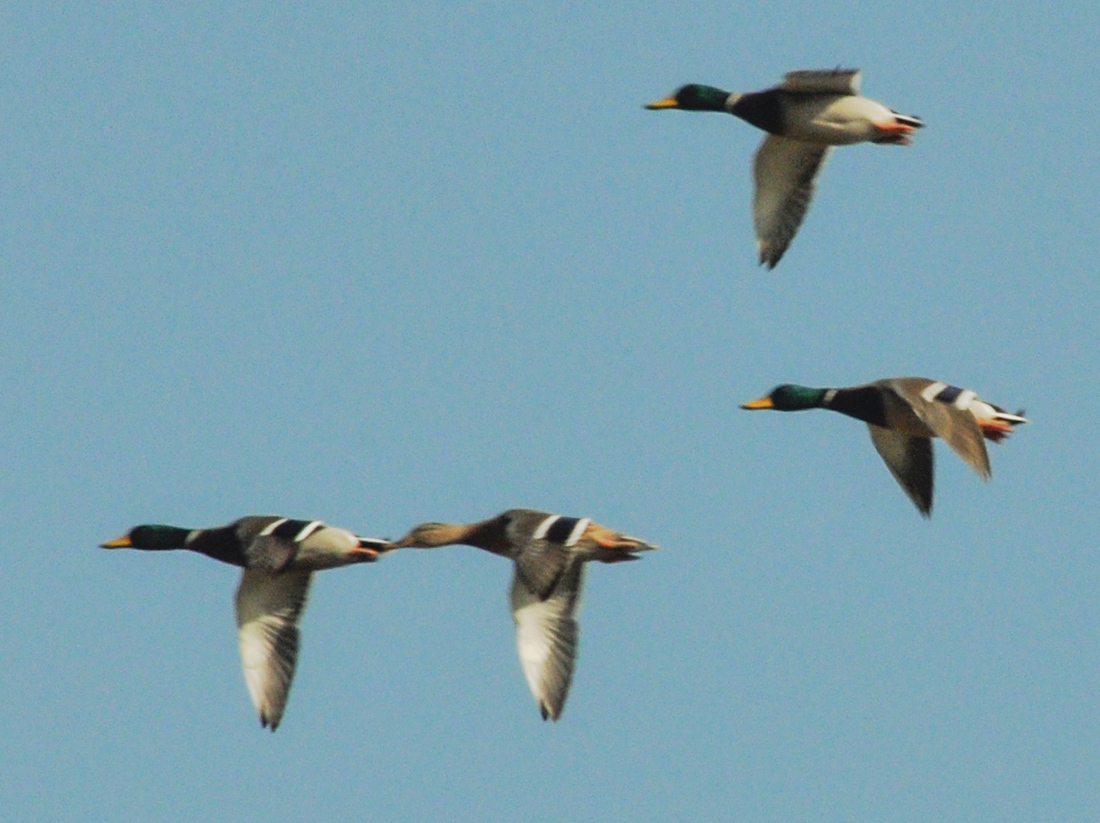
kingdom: Animalia
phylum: Chordata
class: Aves
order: Anseriformes
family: Anatidae
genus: Anas
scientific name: Anas platyrhynchos
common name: Mallard
